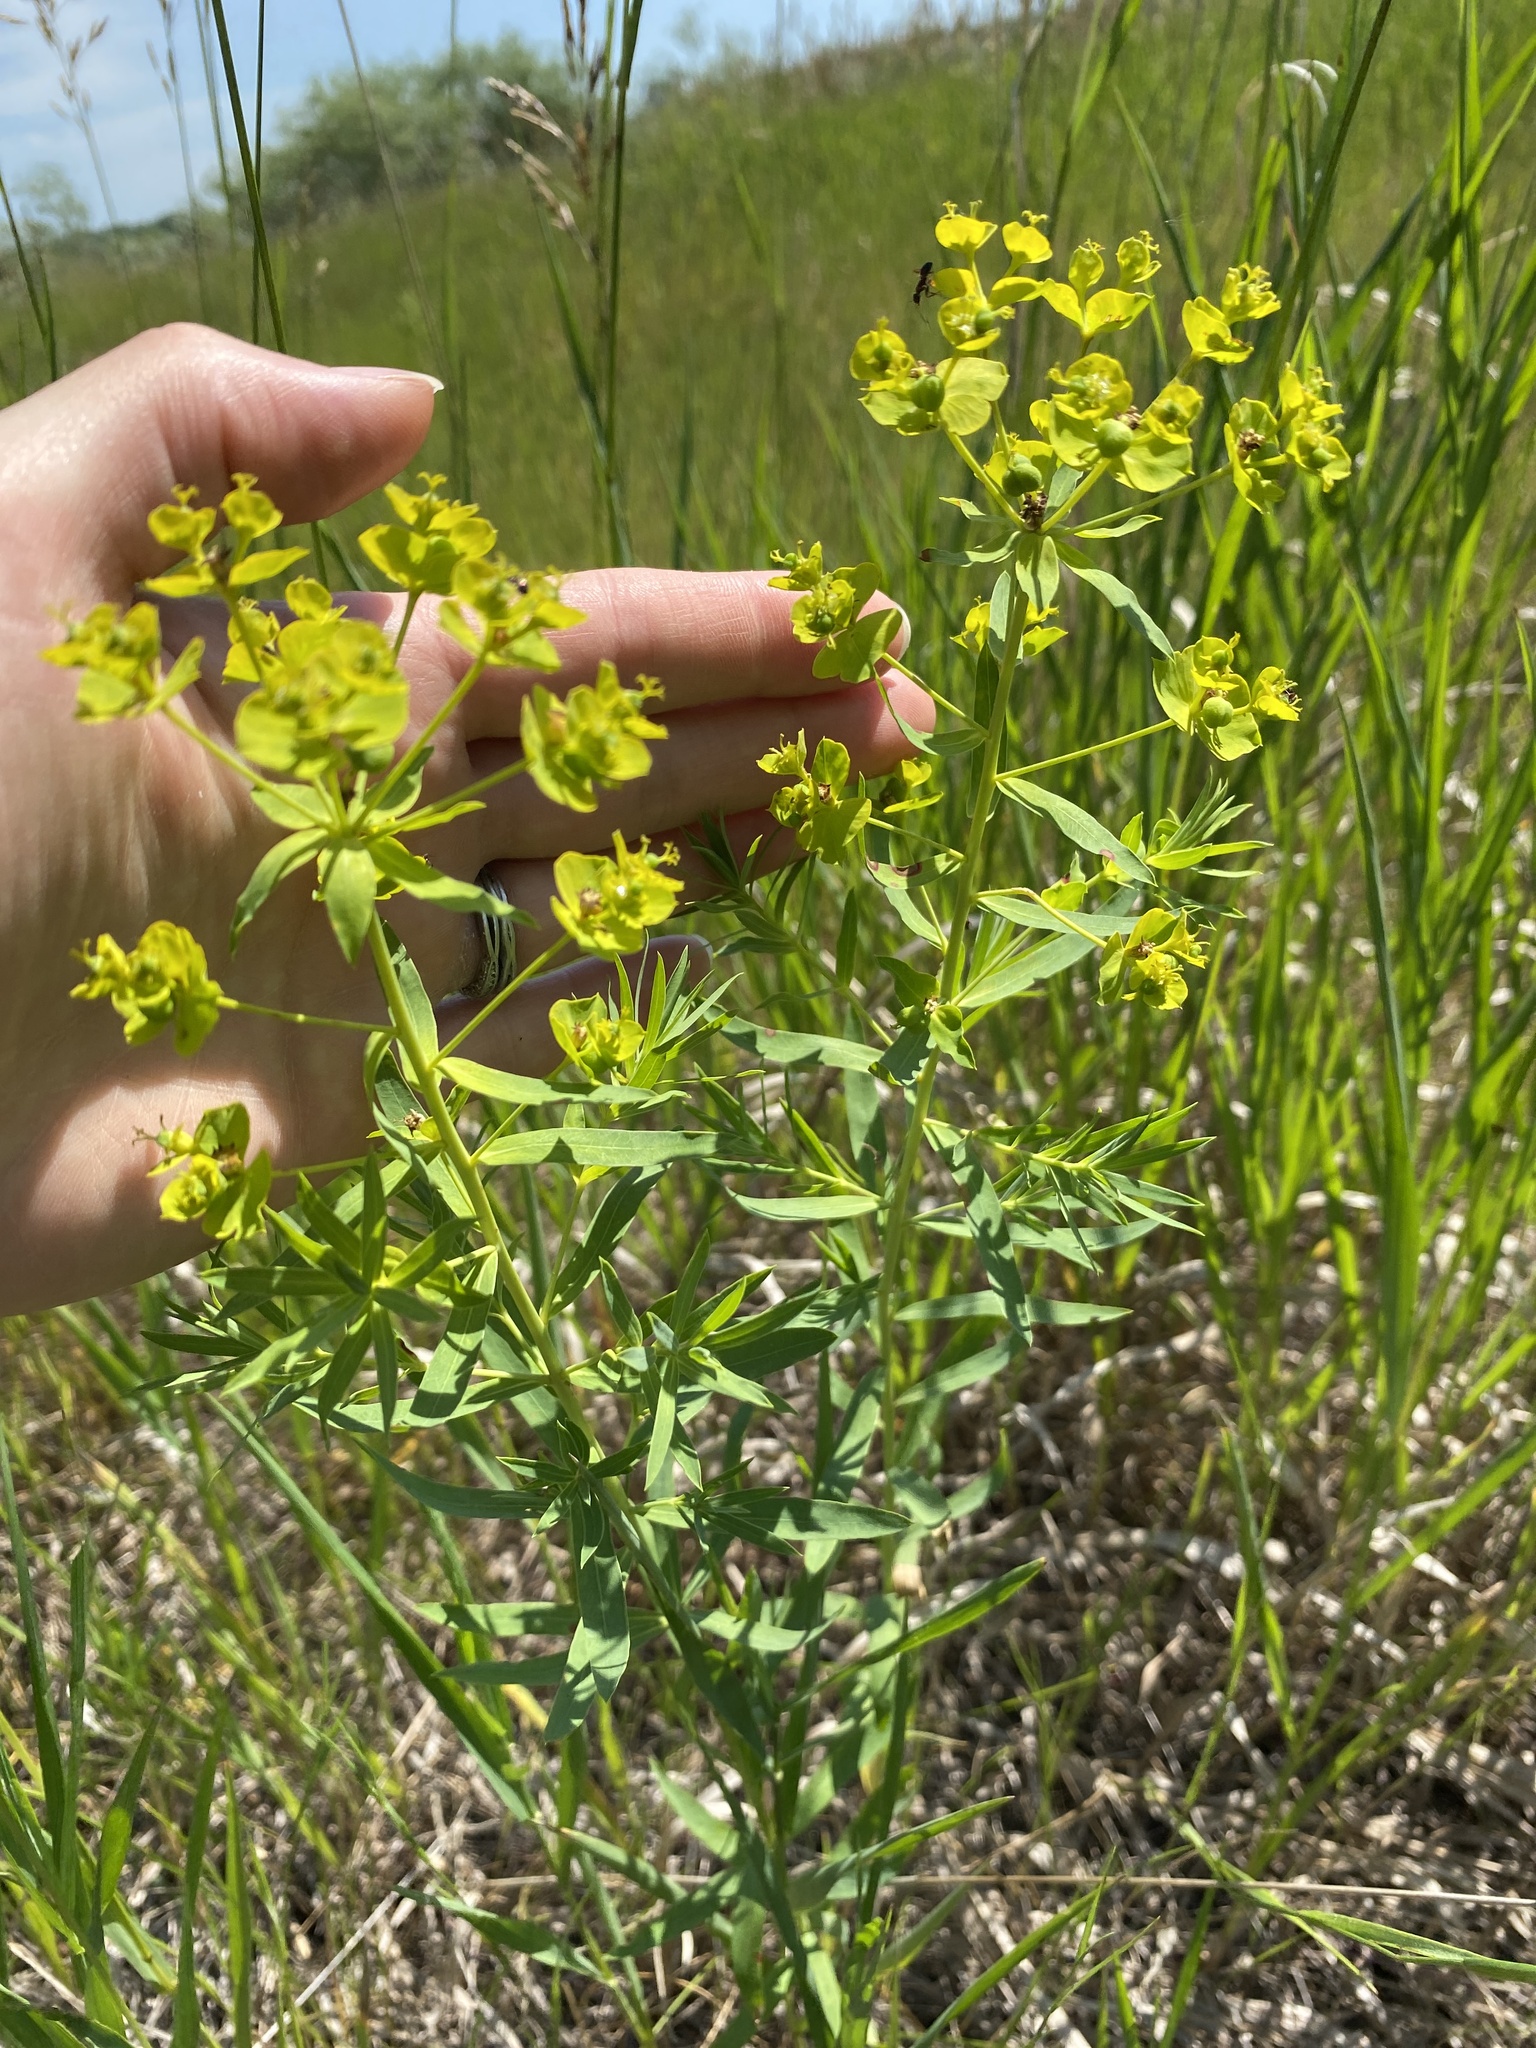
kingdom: Plantae
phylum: Tracheophyta
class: Magnoliopsida
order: Malpighiales
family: Euphorbiaceae
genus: Euphorbia
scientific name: Euphorbia virgata
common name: Leafy spurge
